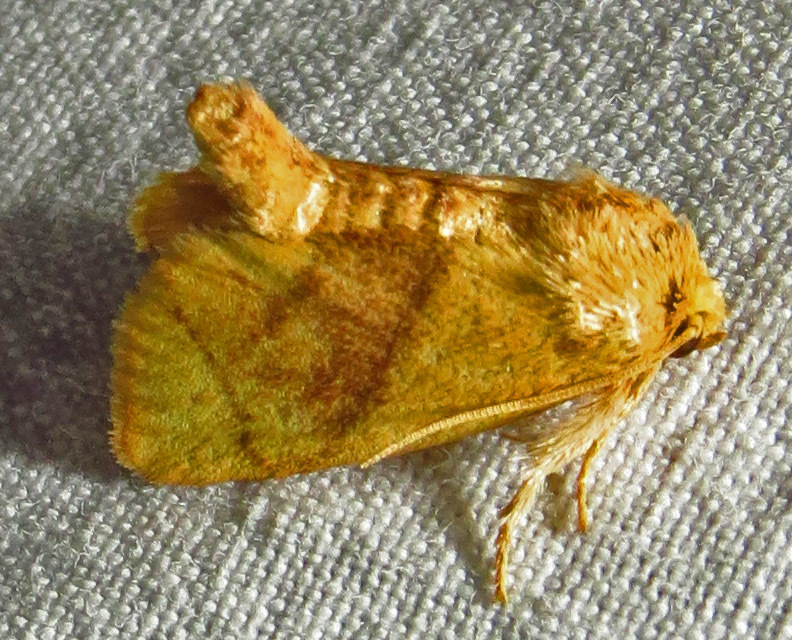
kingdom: Animalia
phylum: Arthropoda
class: Insecta
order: Lepidoptera
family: Limacodidae
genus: Apoda
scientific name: Apoda y-inversa
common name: Yellow-collared slug moth
